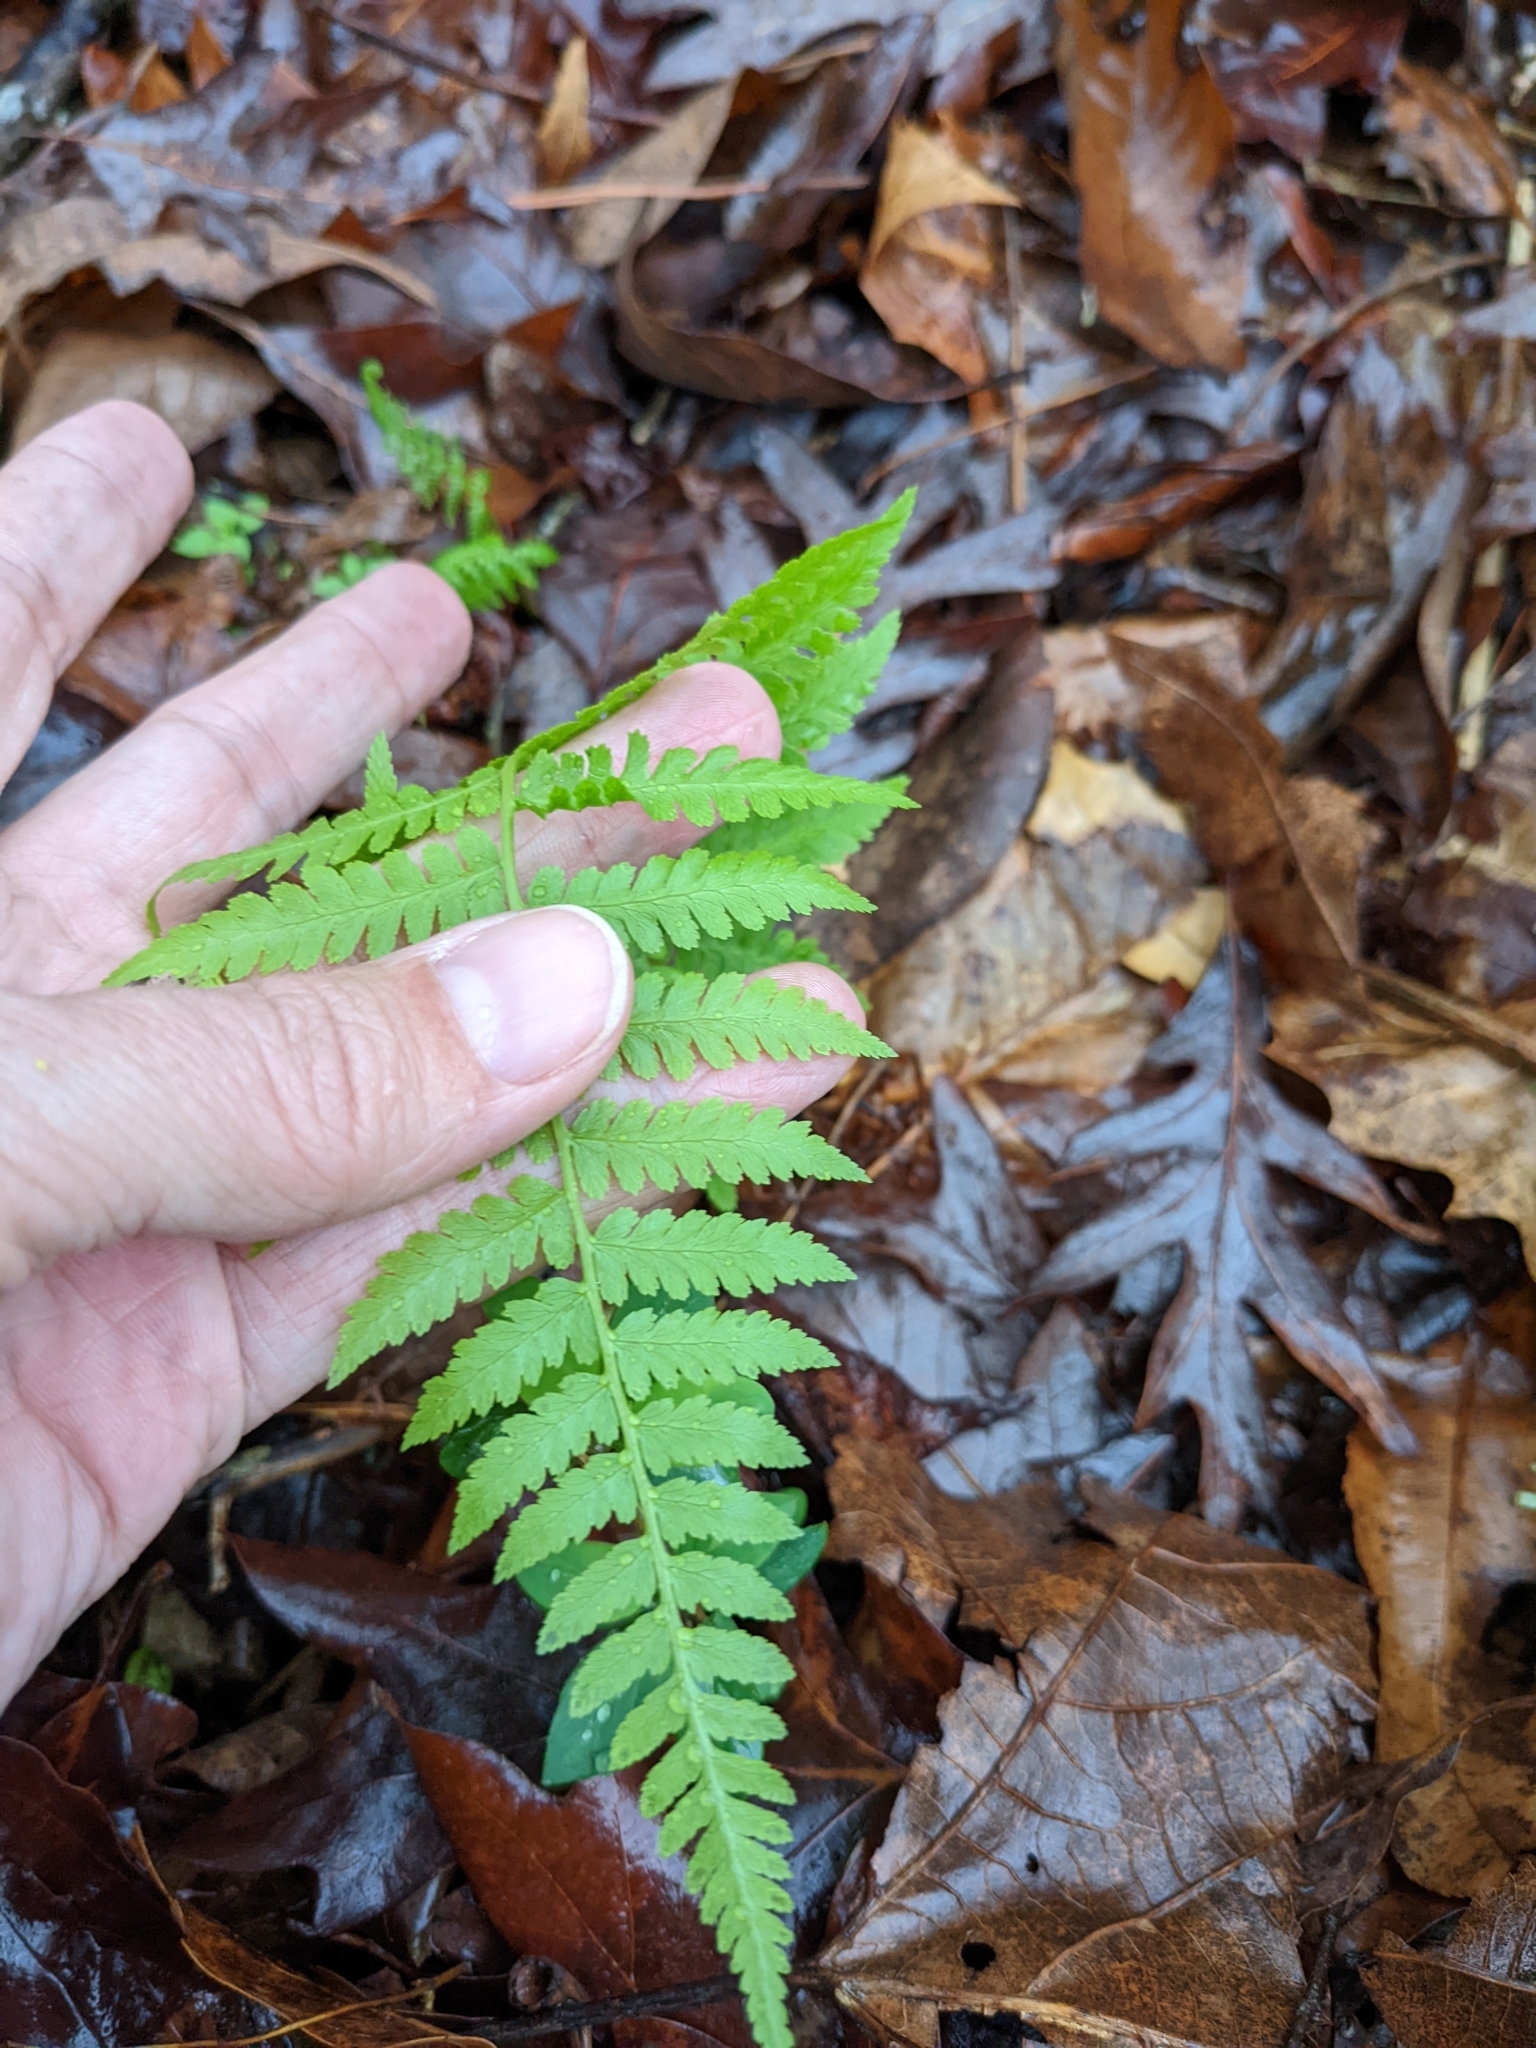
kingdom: Plantae
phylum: Tracheophyta
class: Polypodiopsida
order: Polypodiales
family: Athyriaceae
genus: Athyrium
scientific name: Athyrium asplenioides
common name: Southern lady fern
